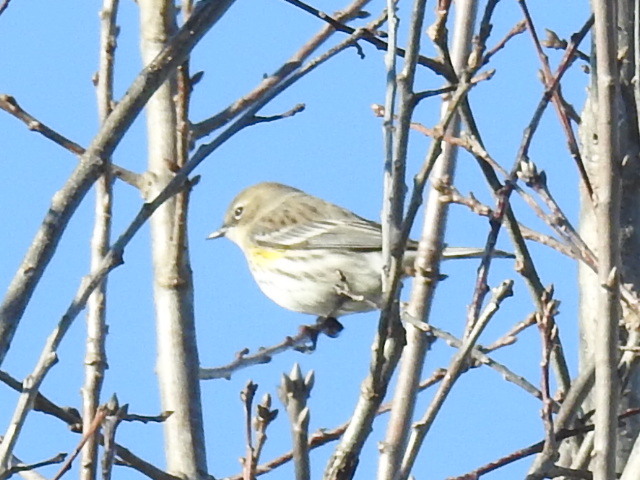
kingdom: Animalia
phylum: Chordata
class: Aves
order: Passeriformes
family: Parulidae
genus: Setophaga
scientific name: Setophaga coronata
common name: Myrtle warbler
